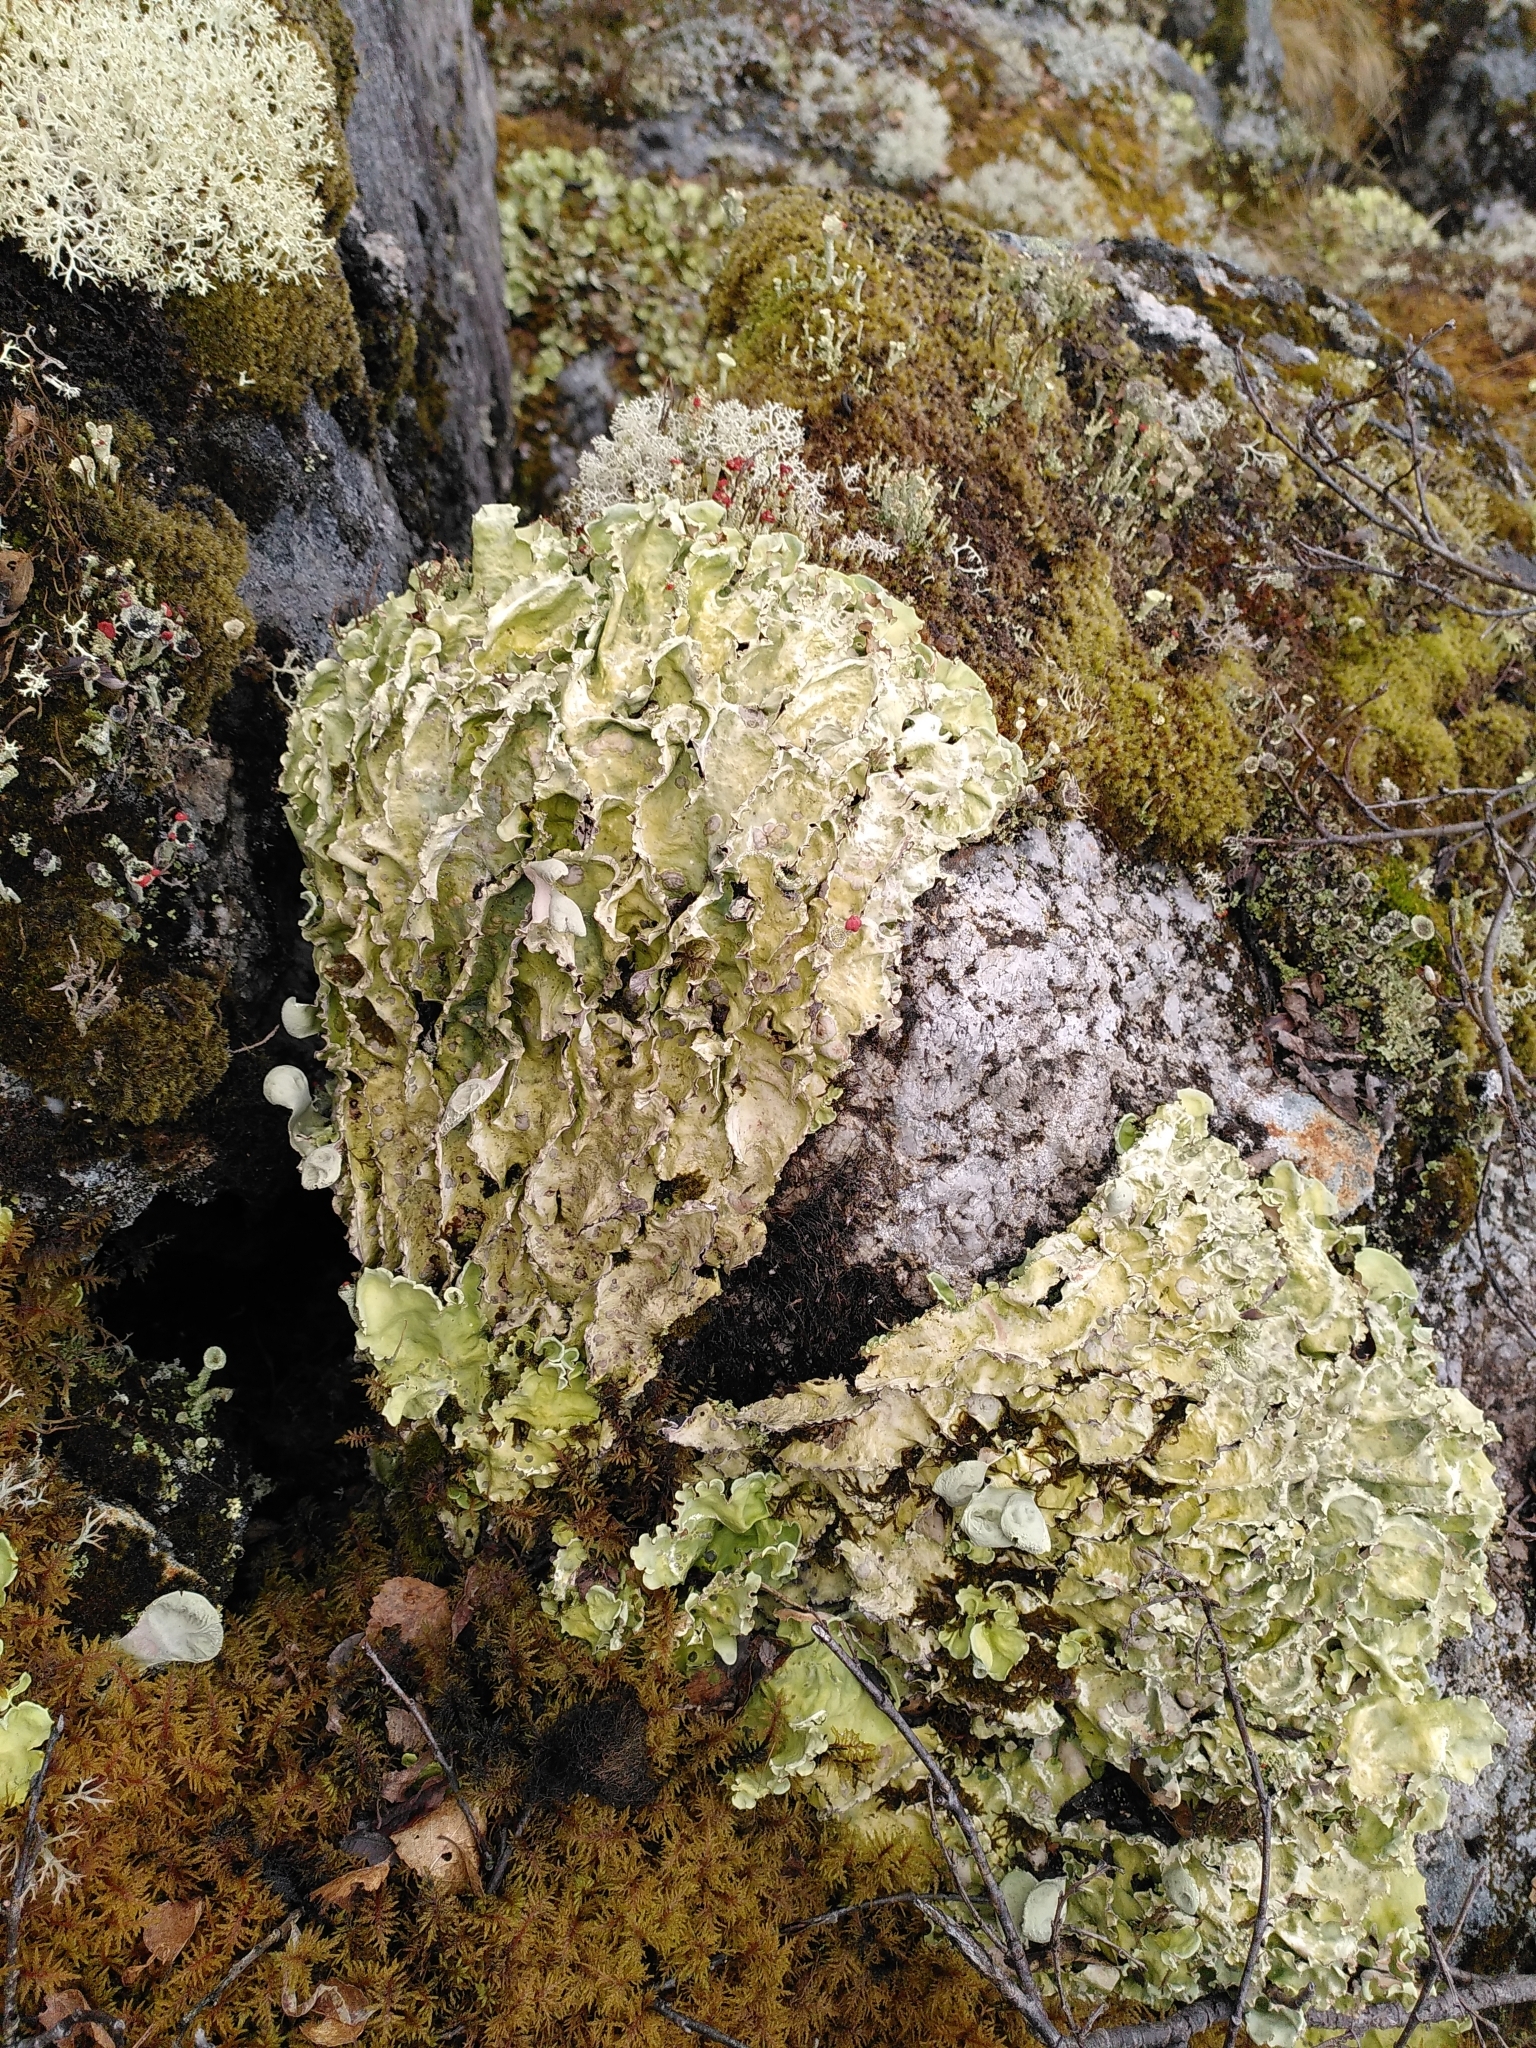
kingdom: Fungi
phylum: Ascomycota
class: Lecanoromycetes
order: Peltigerales
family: Nephromataceae
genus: Nephroma
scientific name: Nephroma arcticum
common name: Arctic kidney-lichen
